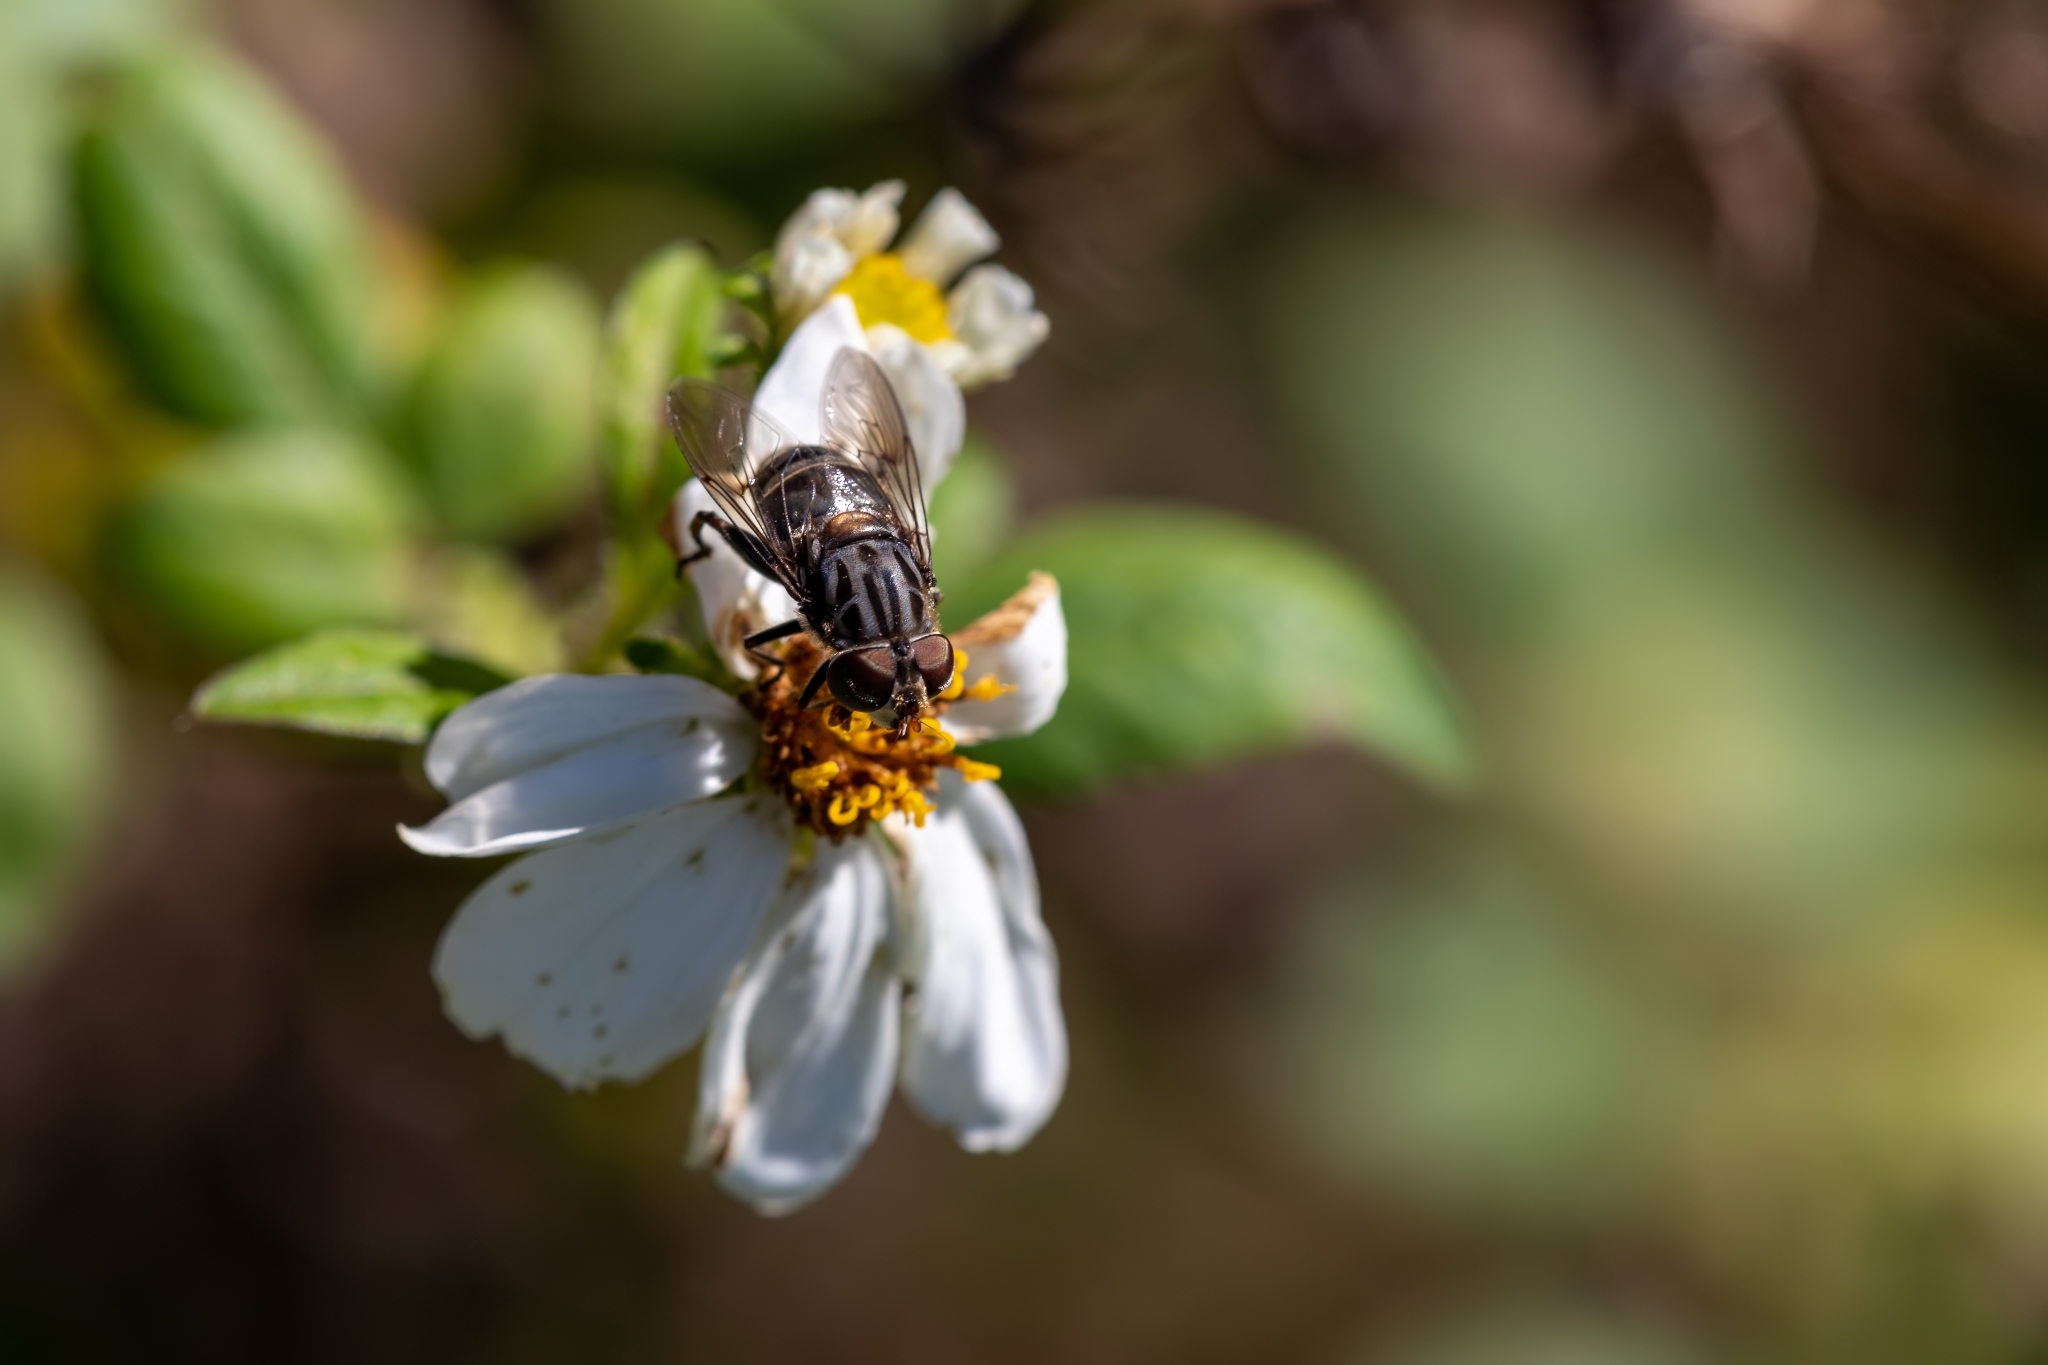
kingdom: Animalia
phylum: Arthropoda
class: Insecta
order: Diptera
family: Syrphidae
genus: Palpada
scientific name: Palpada furcata
